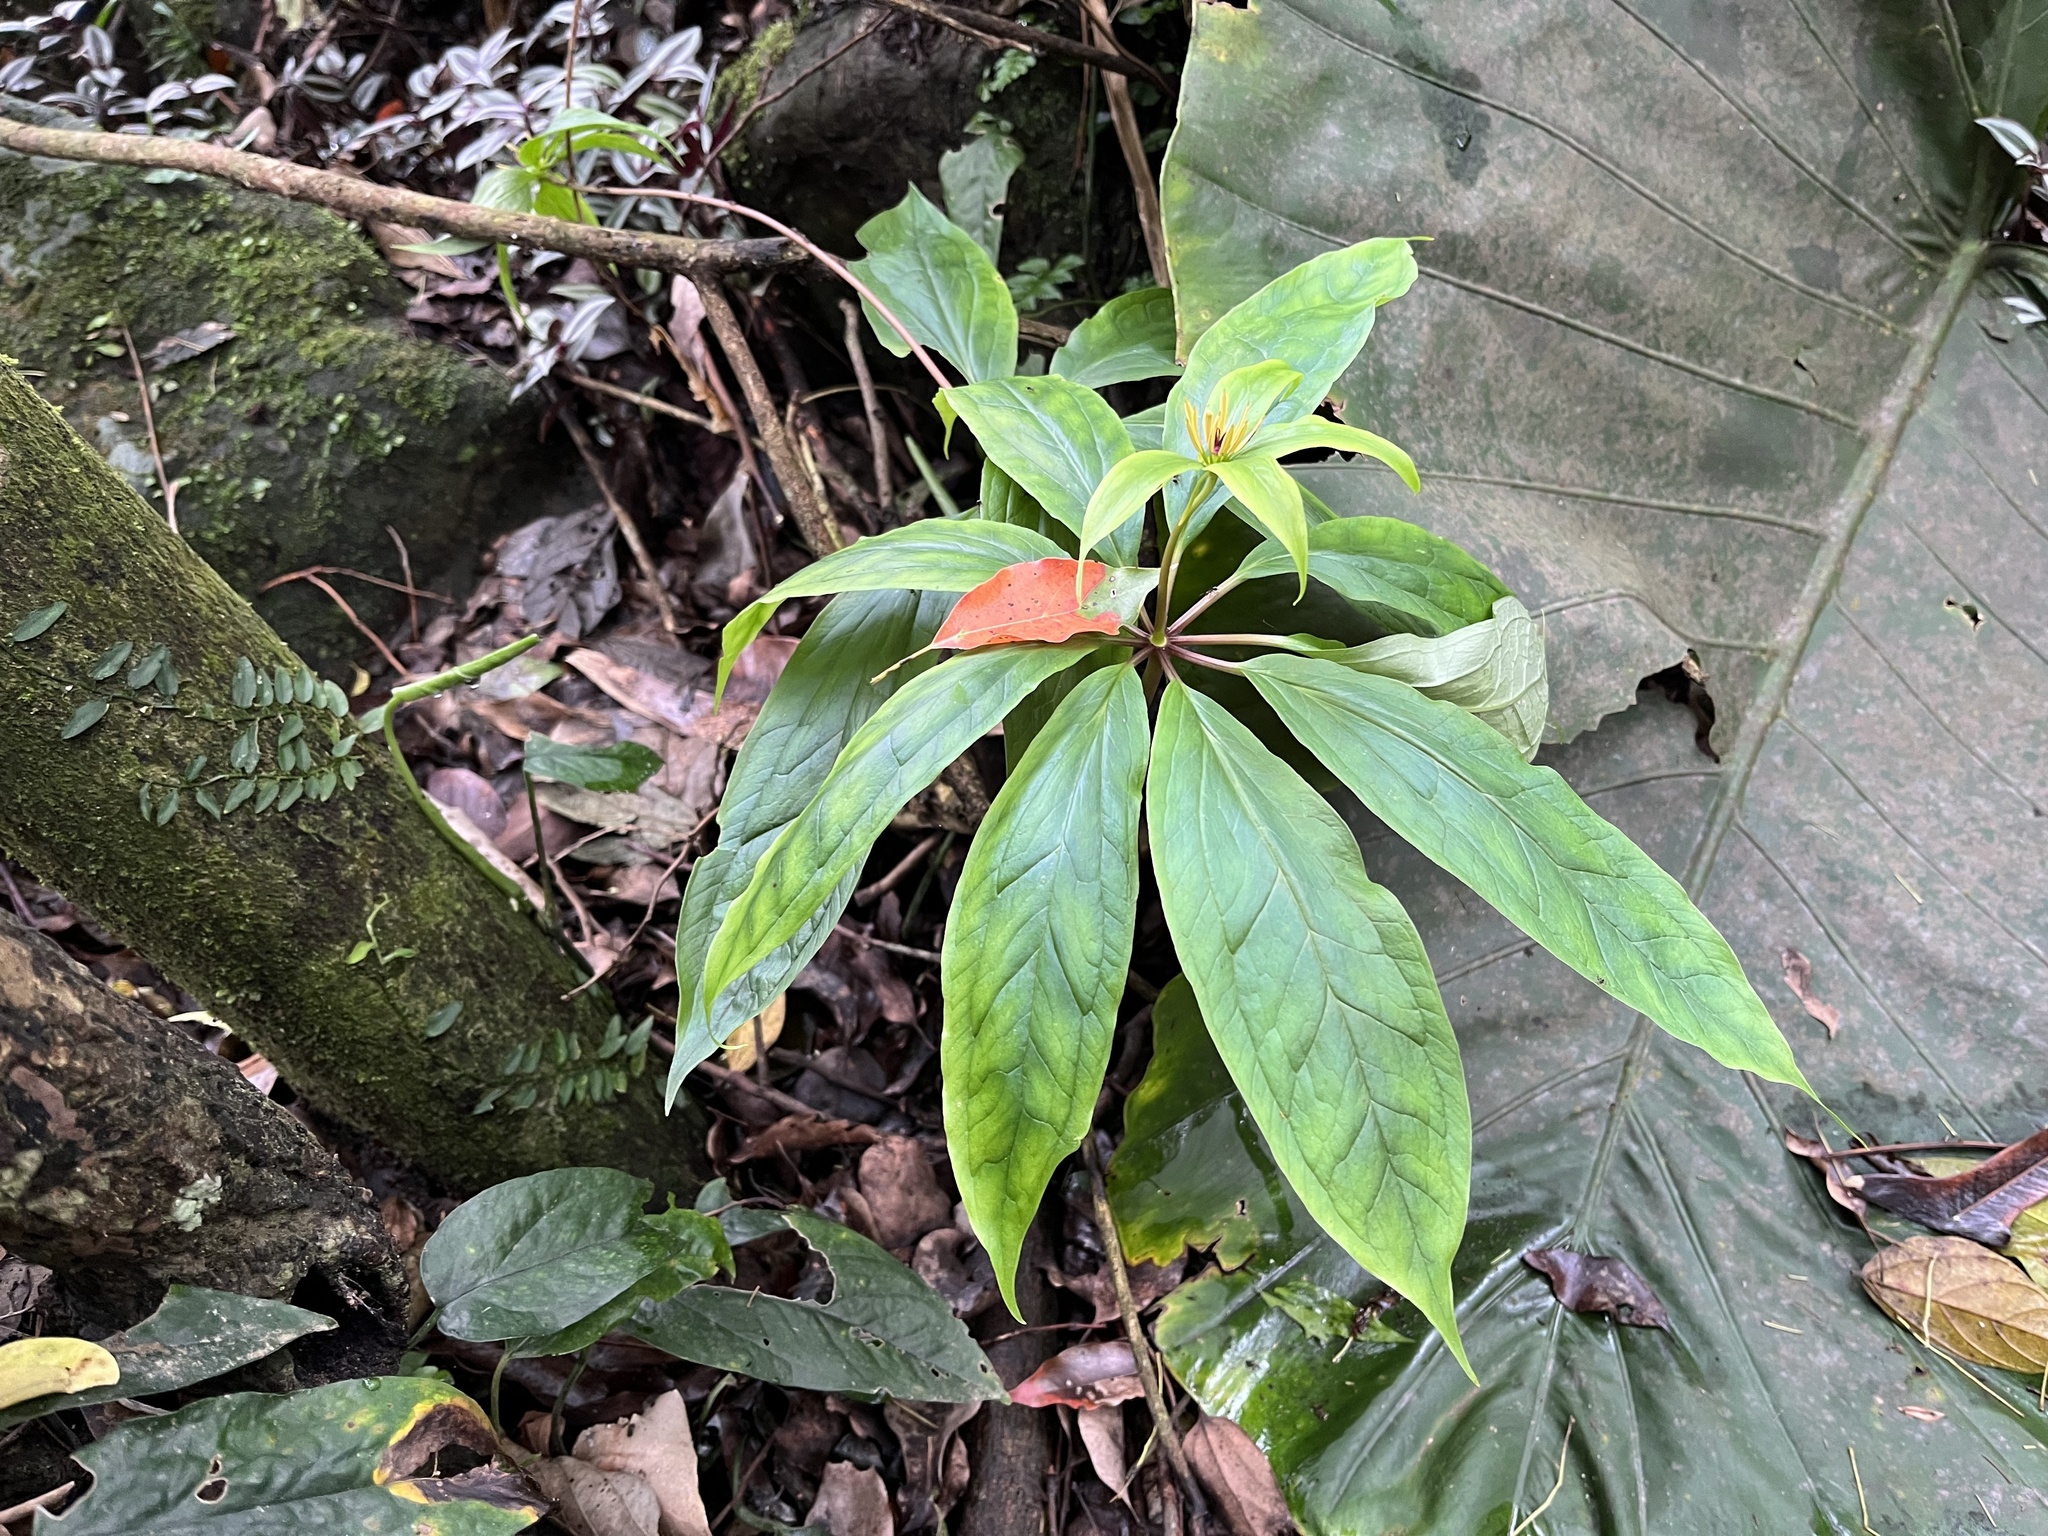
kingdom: Plantae
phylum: Tracheophyta
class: Liliopsida
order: Liliales
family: Melanthiaceae
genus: Paris
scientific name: Paris polyphylla
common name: Love apple
